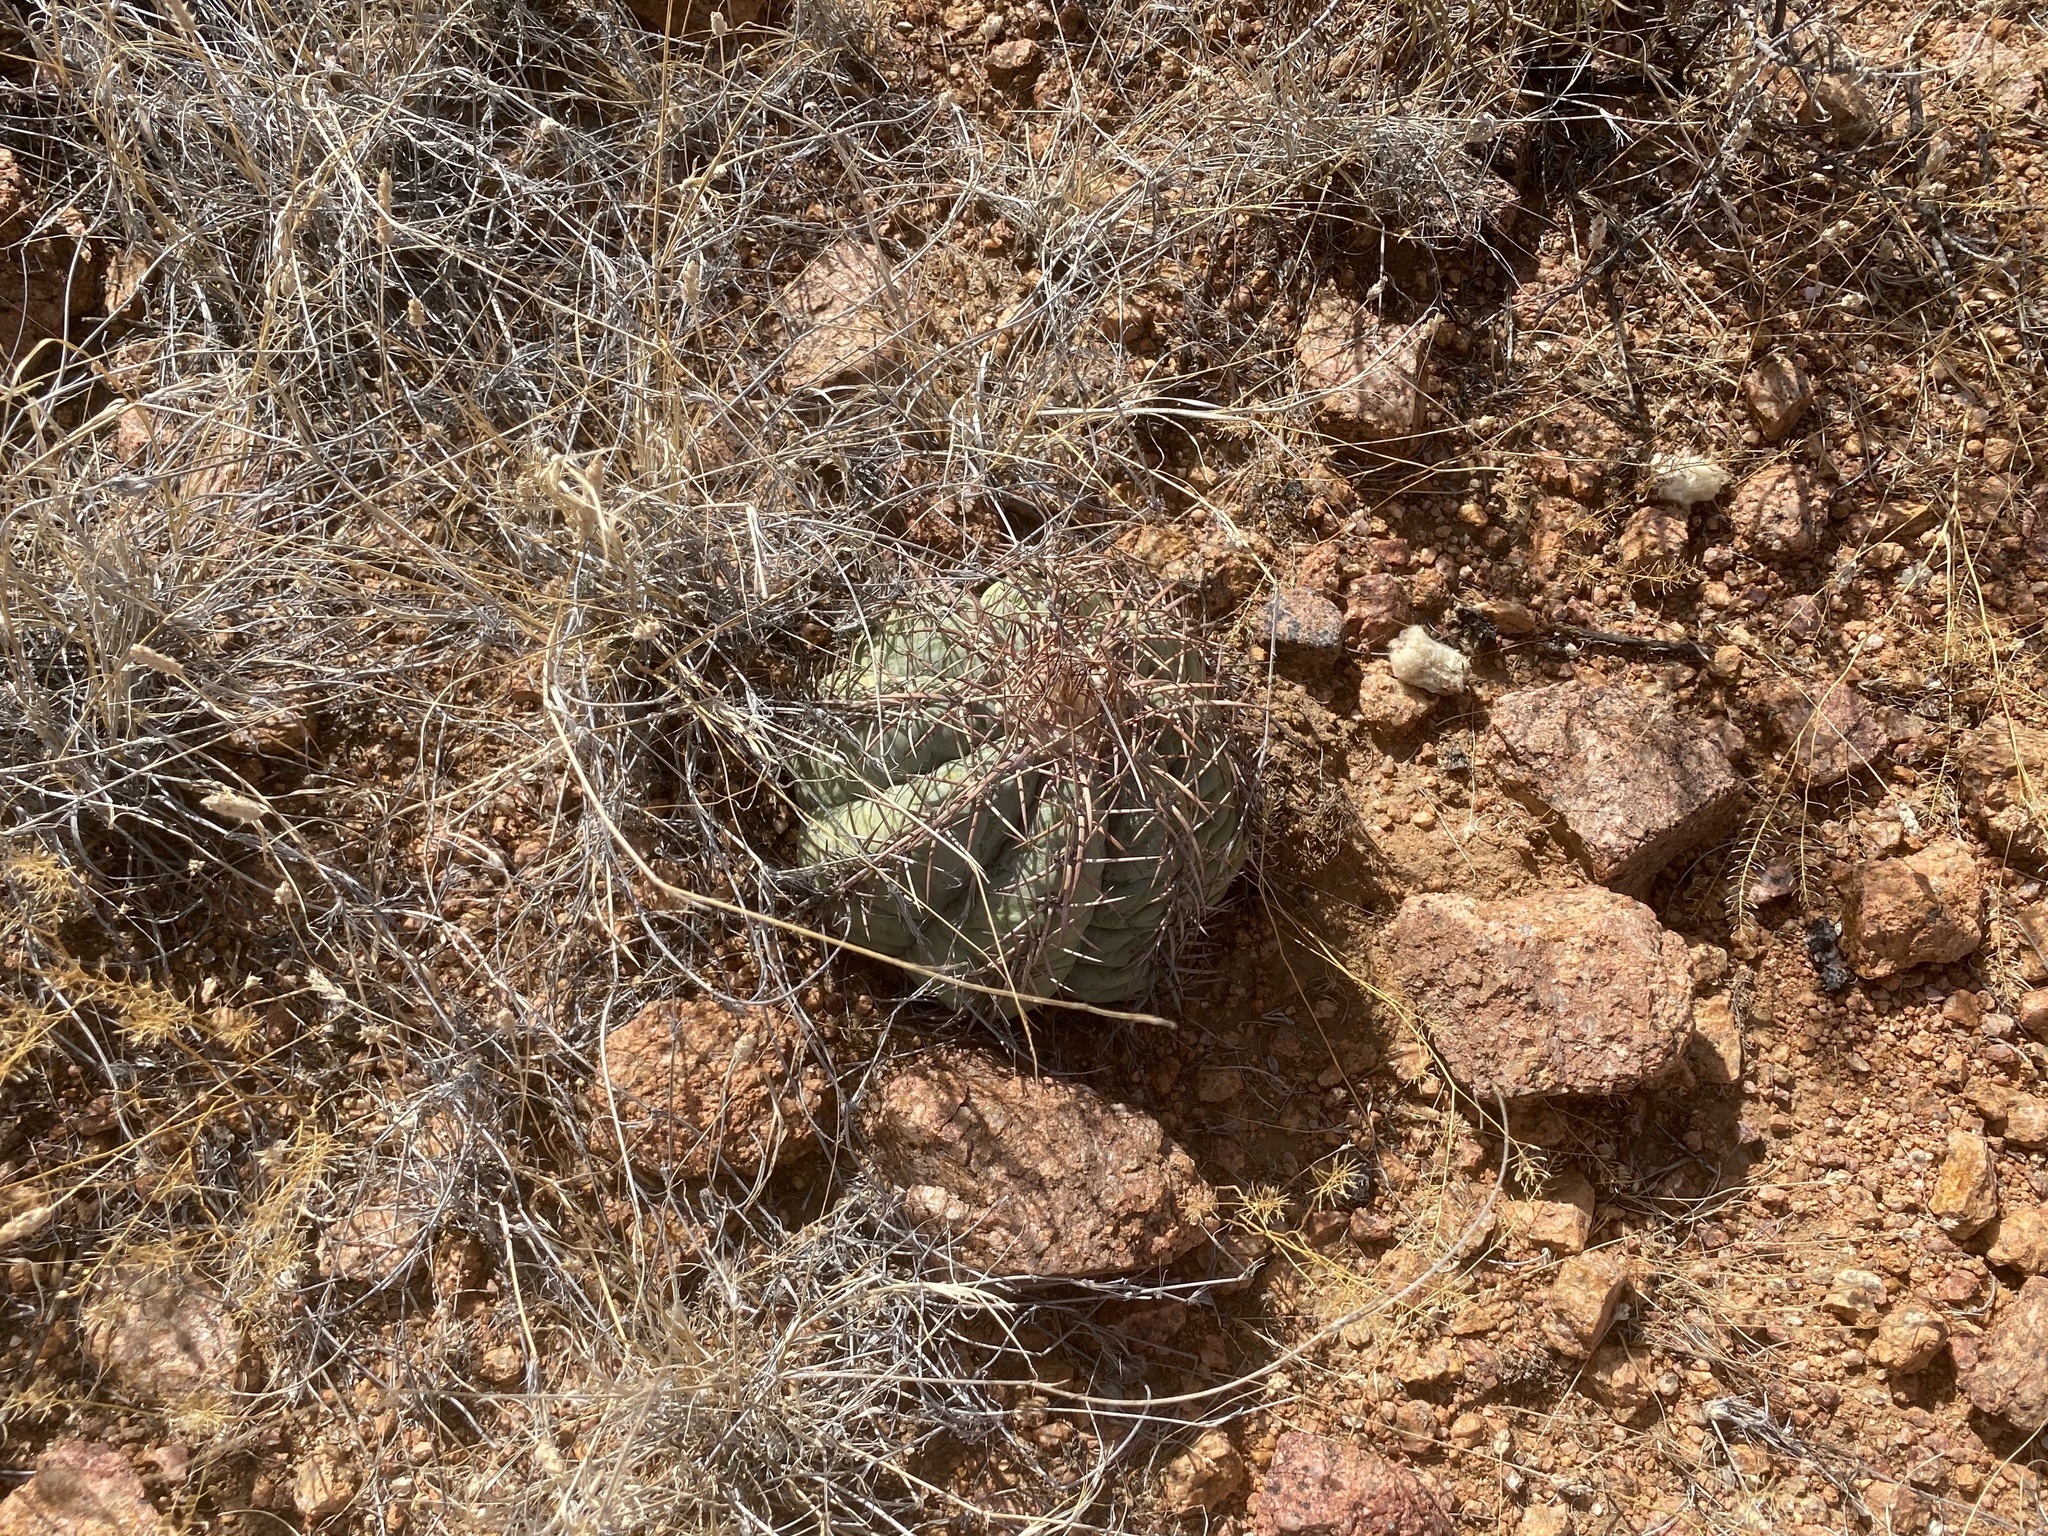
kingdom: Plantae
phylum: Tracheophyta
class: Magnoliopsida
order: Caryophyllales
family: Cactaceae
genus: Echinocactus
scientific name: Echinocactus horizonthalonius
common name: Devilshead
